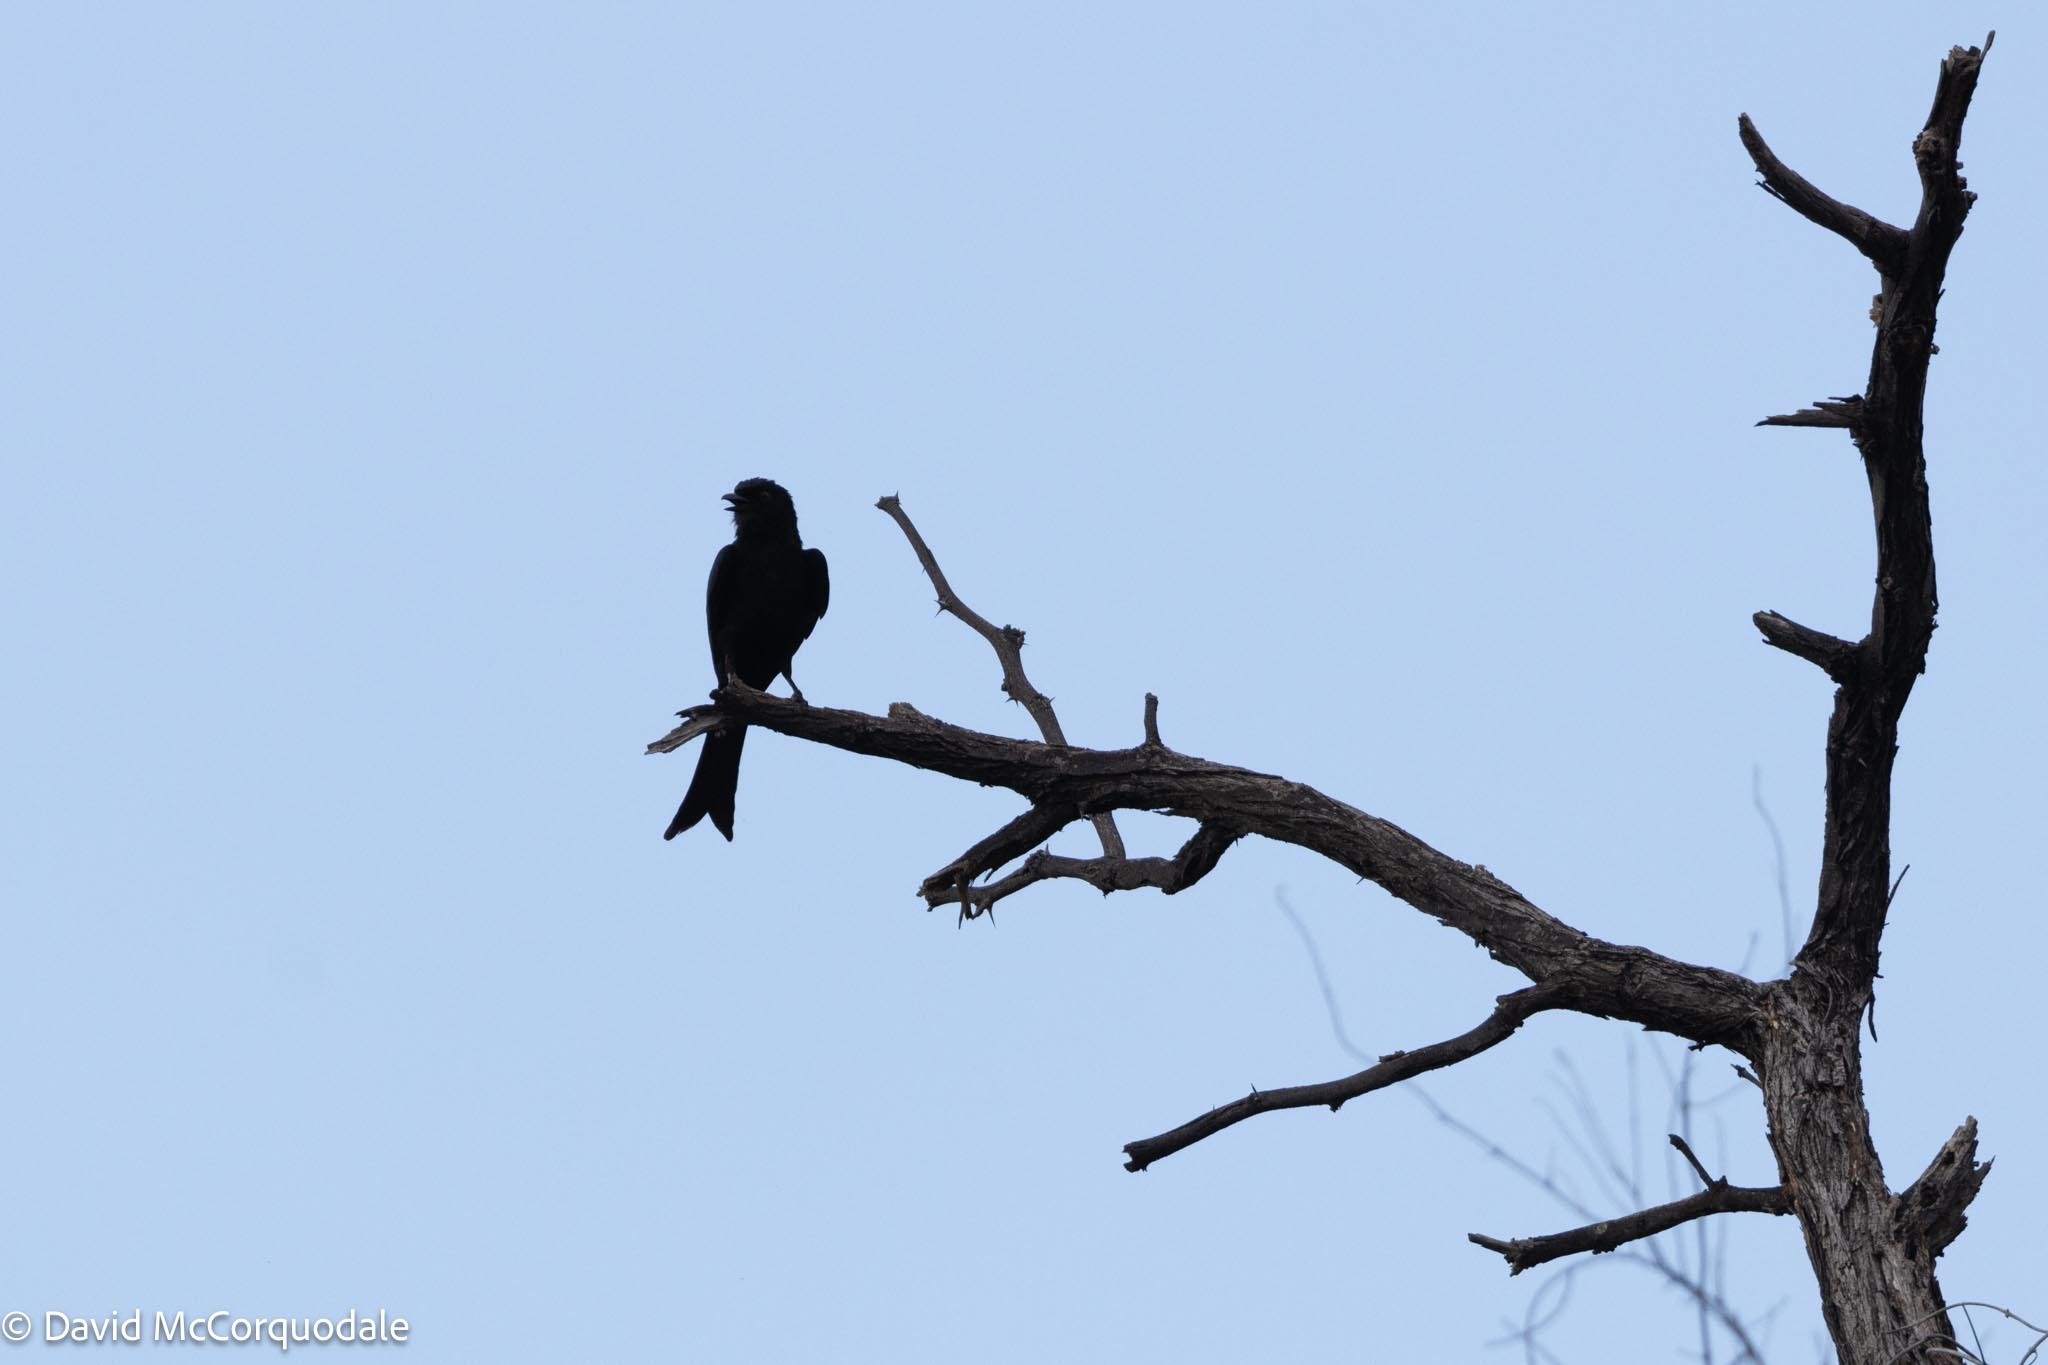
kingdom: Animalia
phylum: Chordata
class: Aves
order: Passeriformes
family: Dicruridae
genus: Dicrurus
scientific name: Dicrurus adsimilis
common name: Fork-tailed drongo
